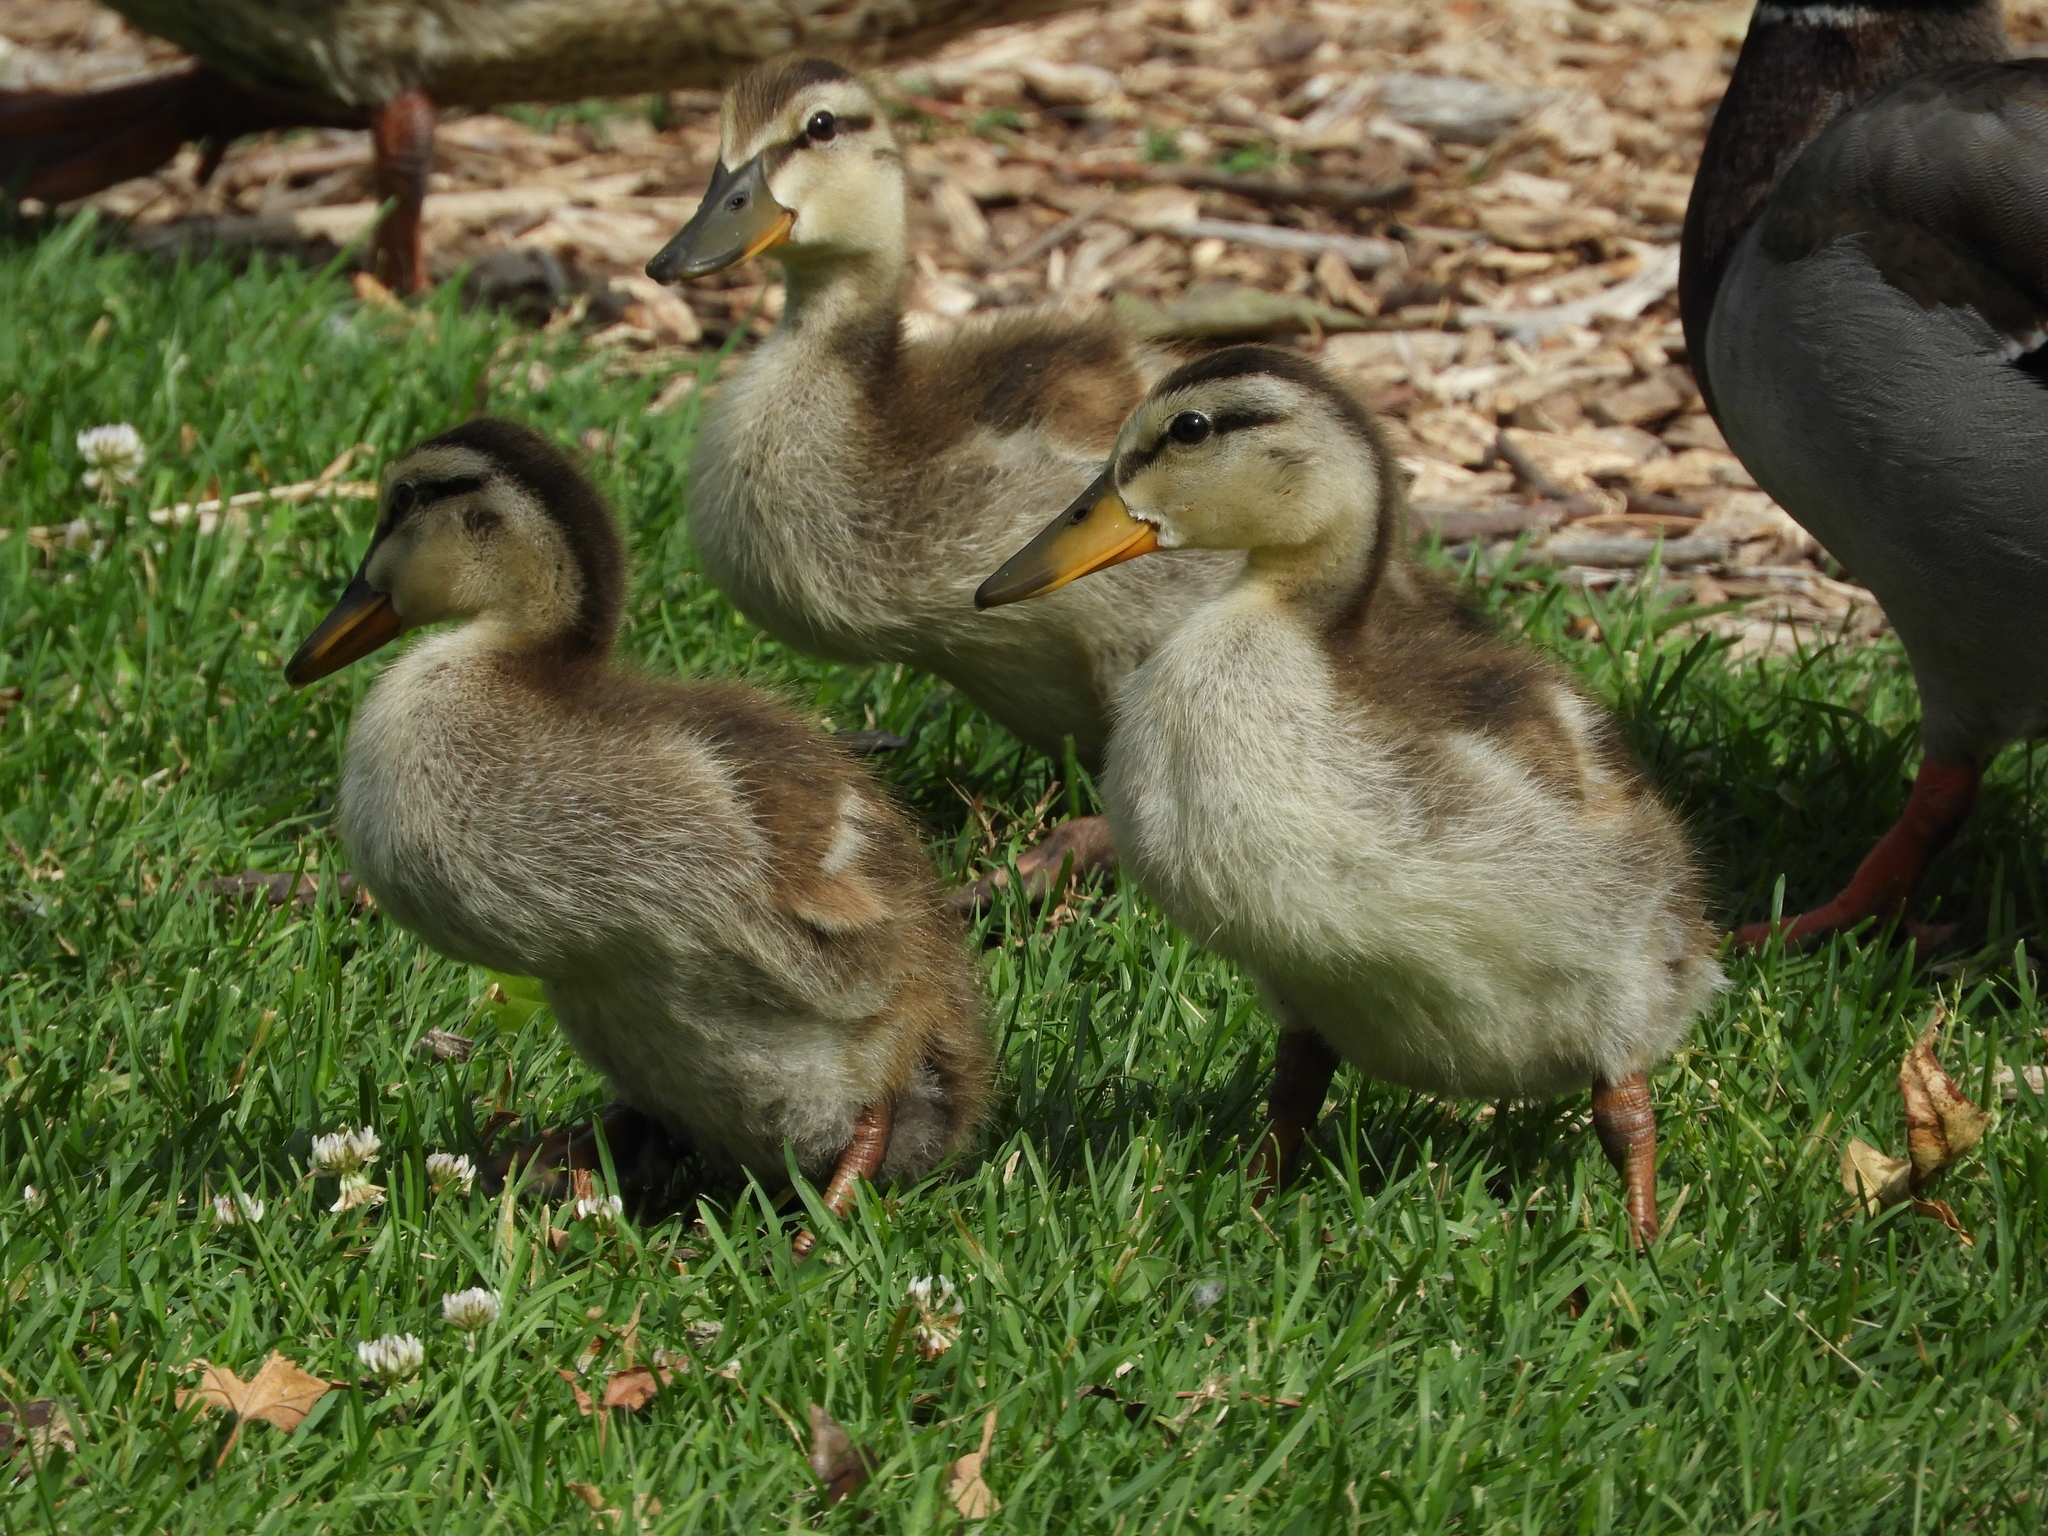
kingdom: Animalia
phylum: Chordata
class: Aves
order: Anseriformes
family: Anatidae
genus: Anas
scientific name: Anas platyrhynchos
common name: Mallard
